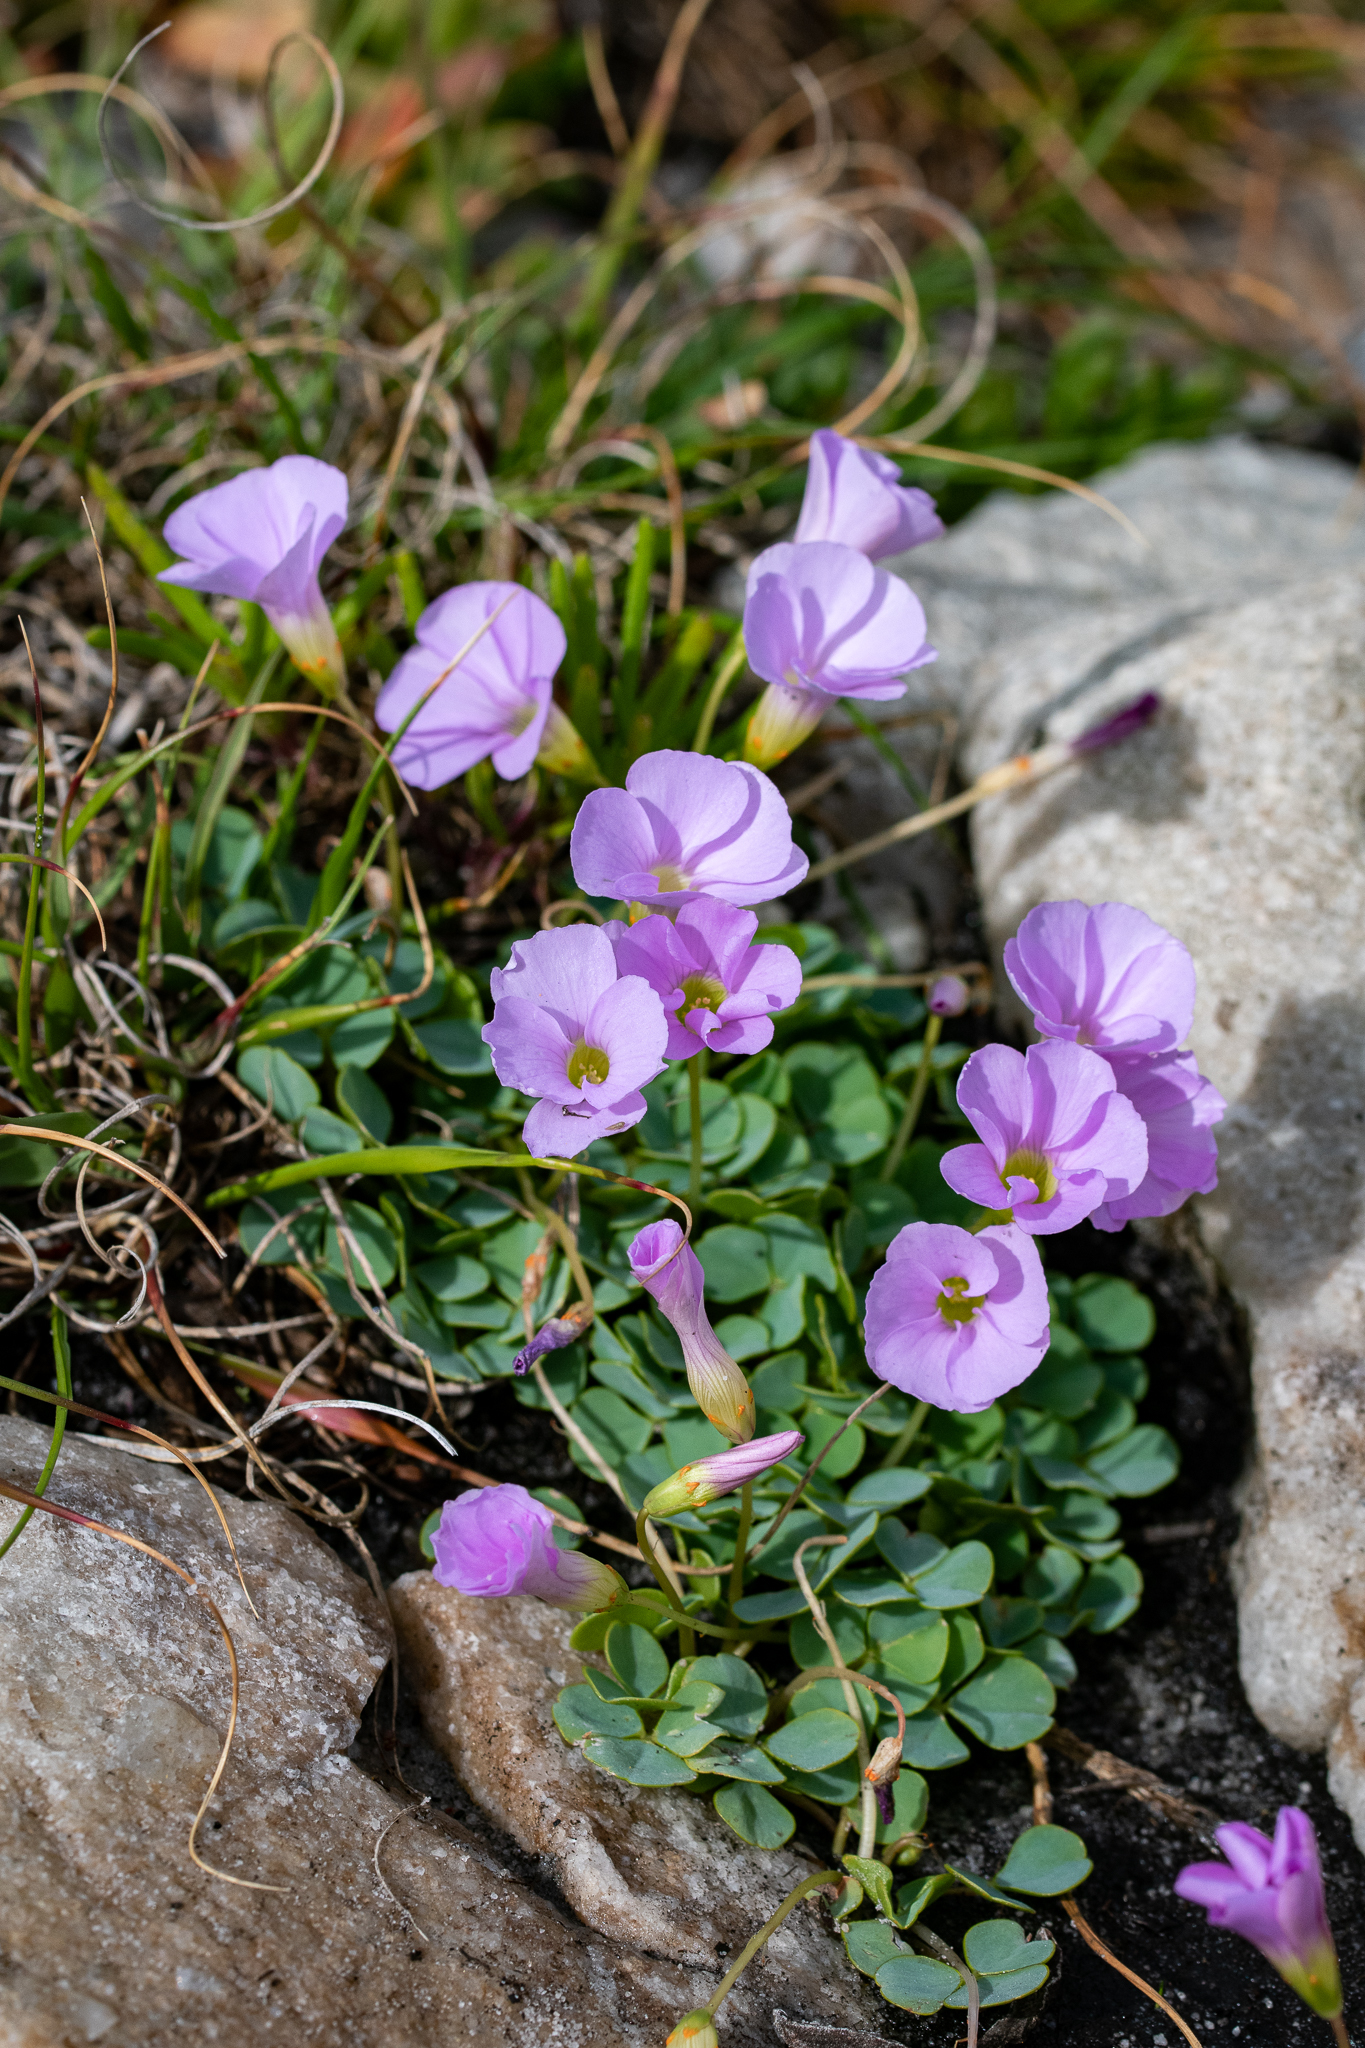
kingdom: Plantae
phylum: Tracheophyta
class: Magnoliopsida
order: Oxalidales
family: Oxalidaceae
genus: Oxalis
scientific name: Oxalis commutata
